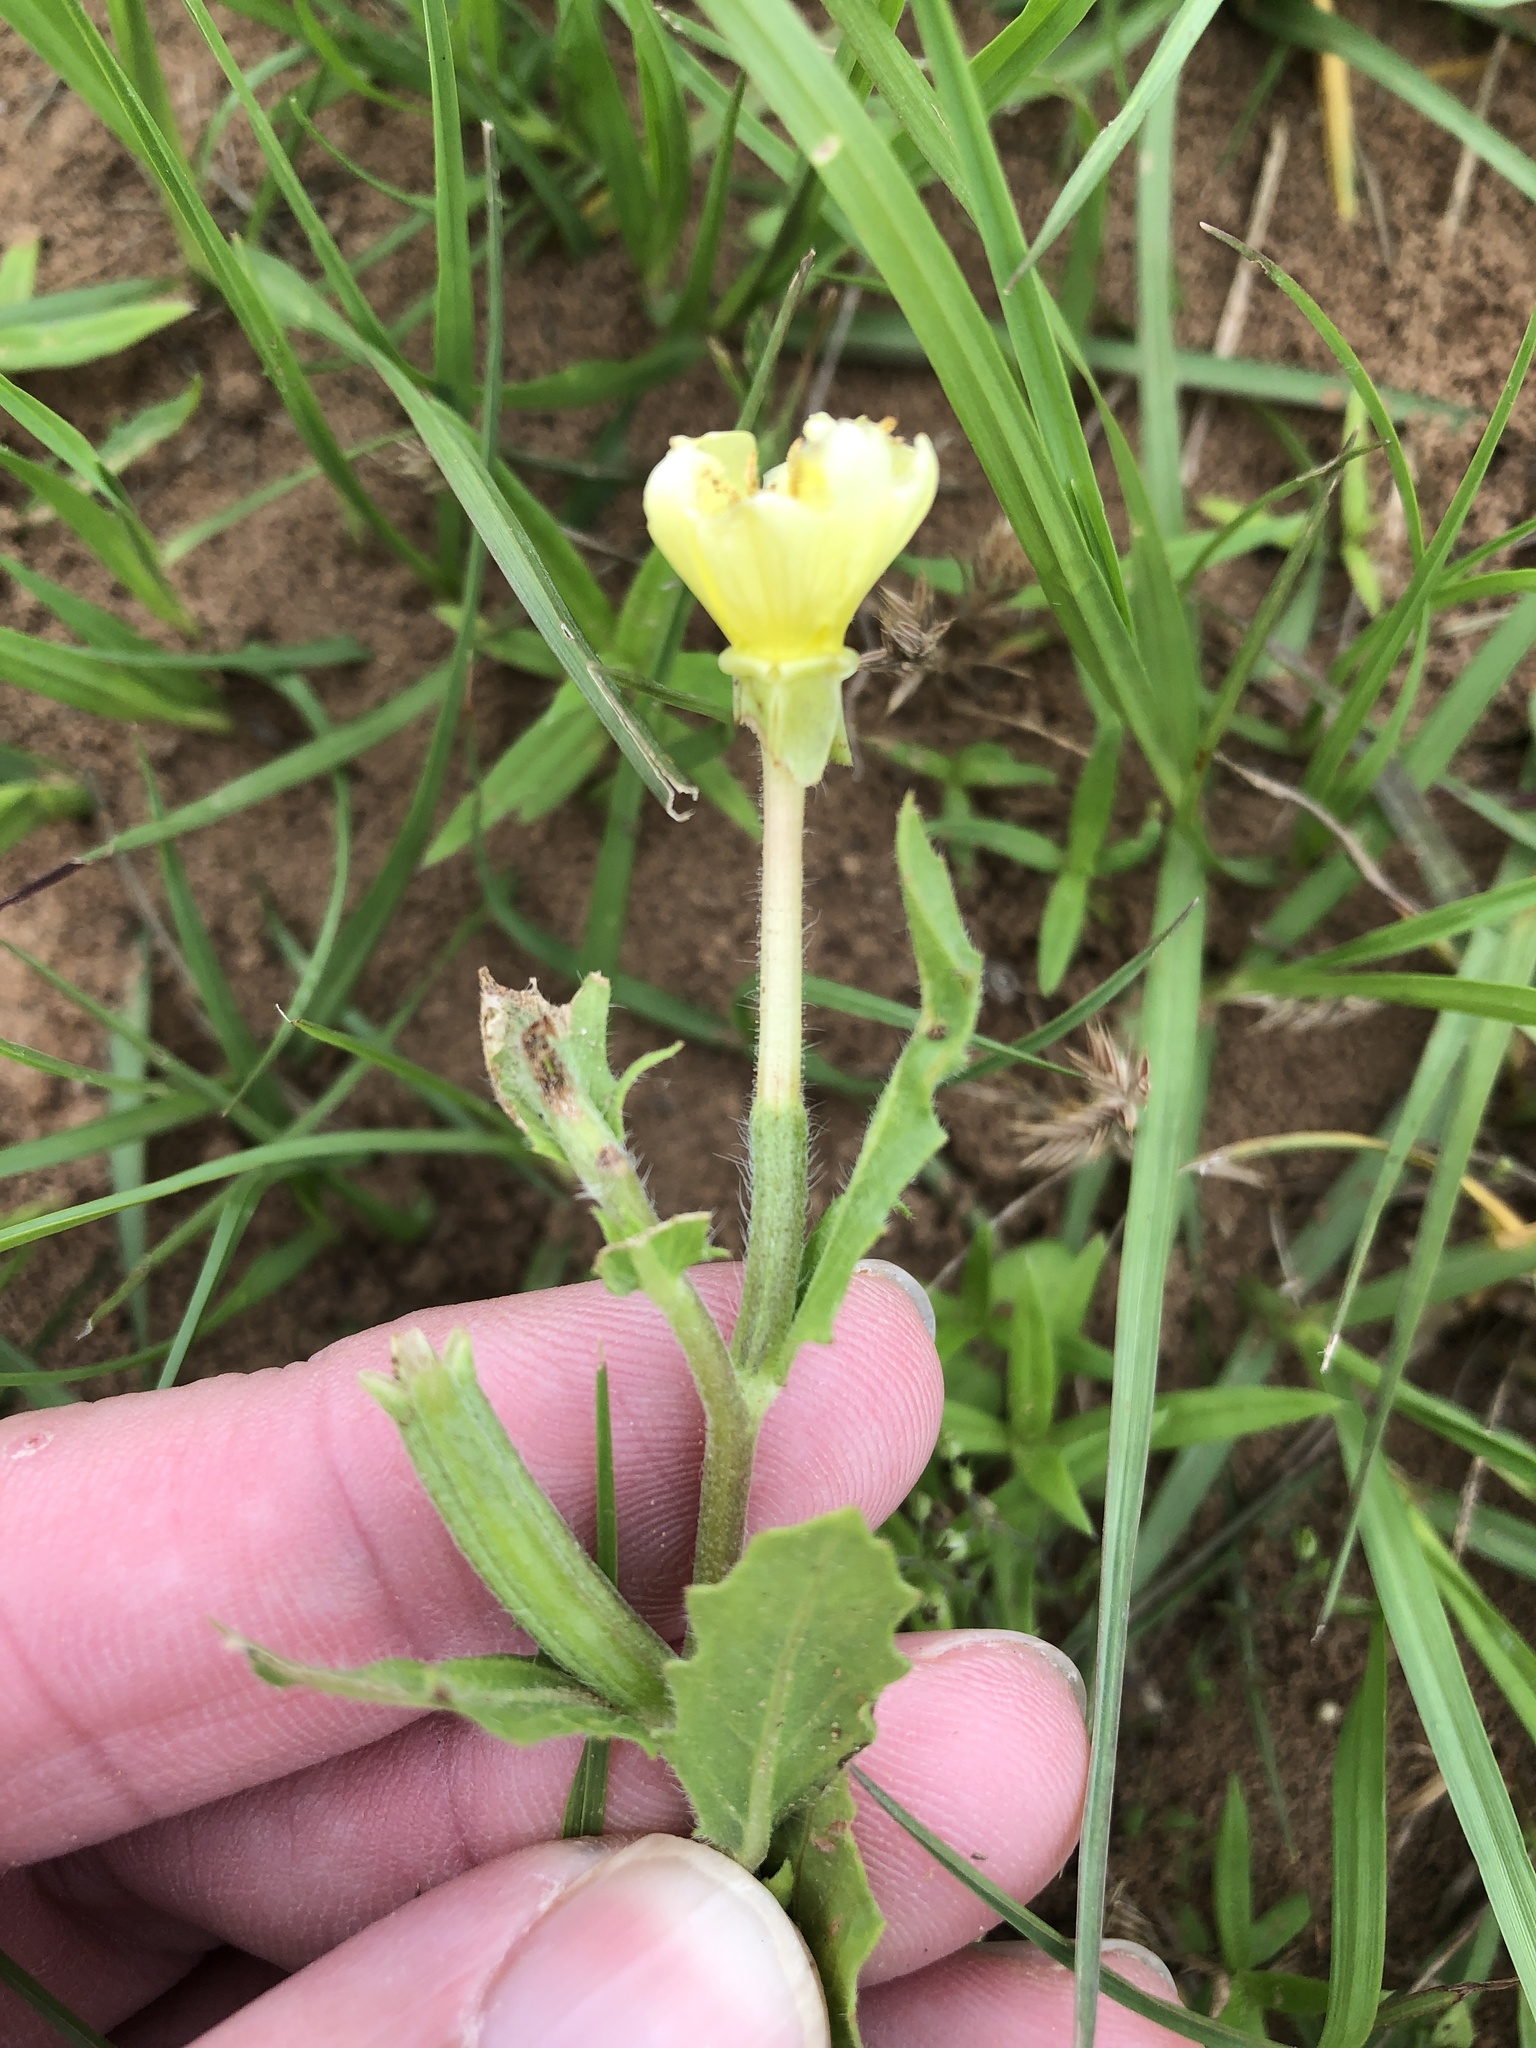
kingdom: Plantae
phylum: Tracheophyta
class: Magnoliopsida
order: Myrtales
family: Onagraceae
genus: Oenothera
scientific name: Oenothera laciniata
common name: Cut-leaved evening-primrose
